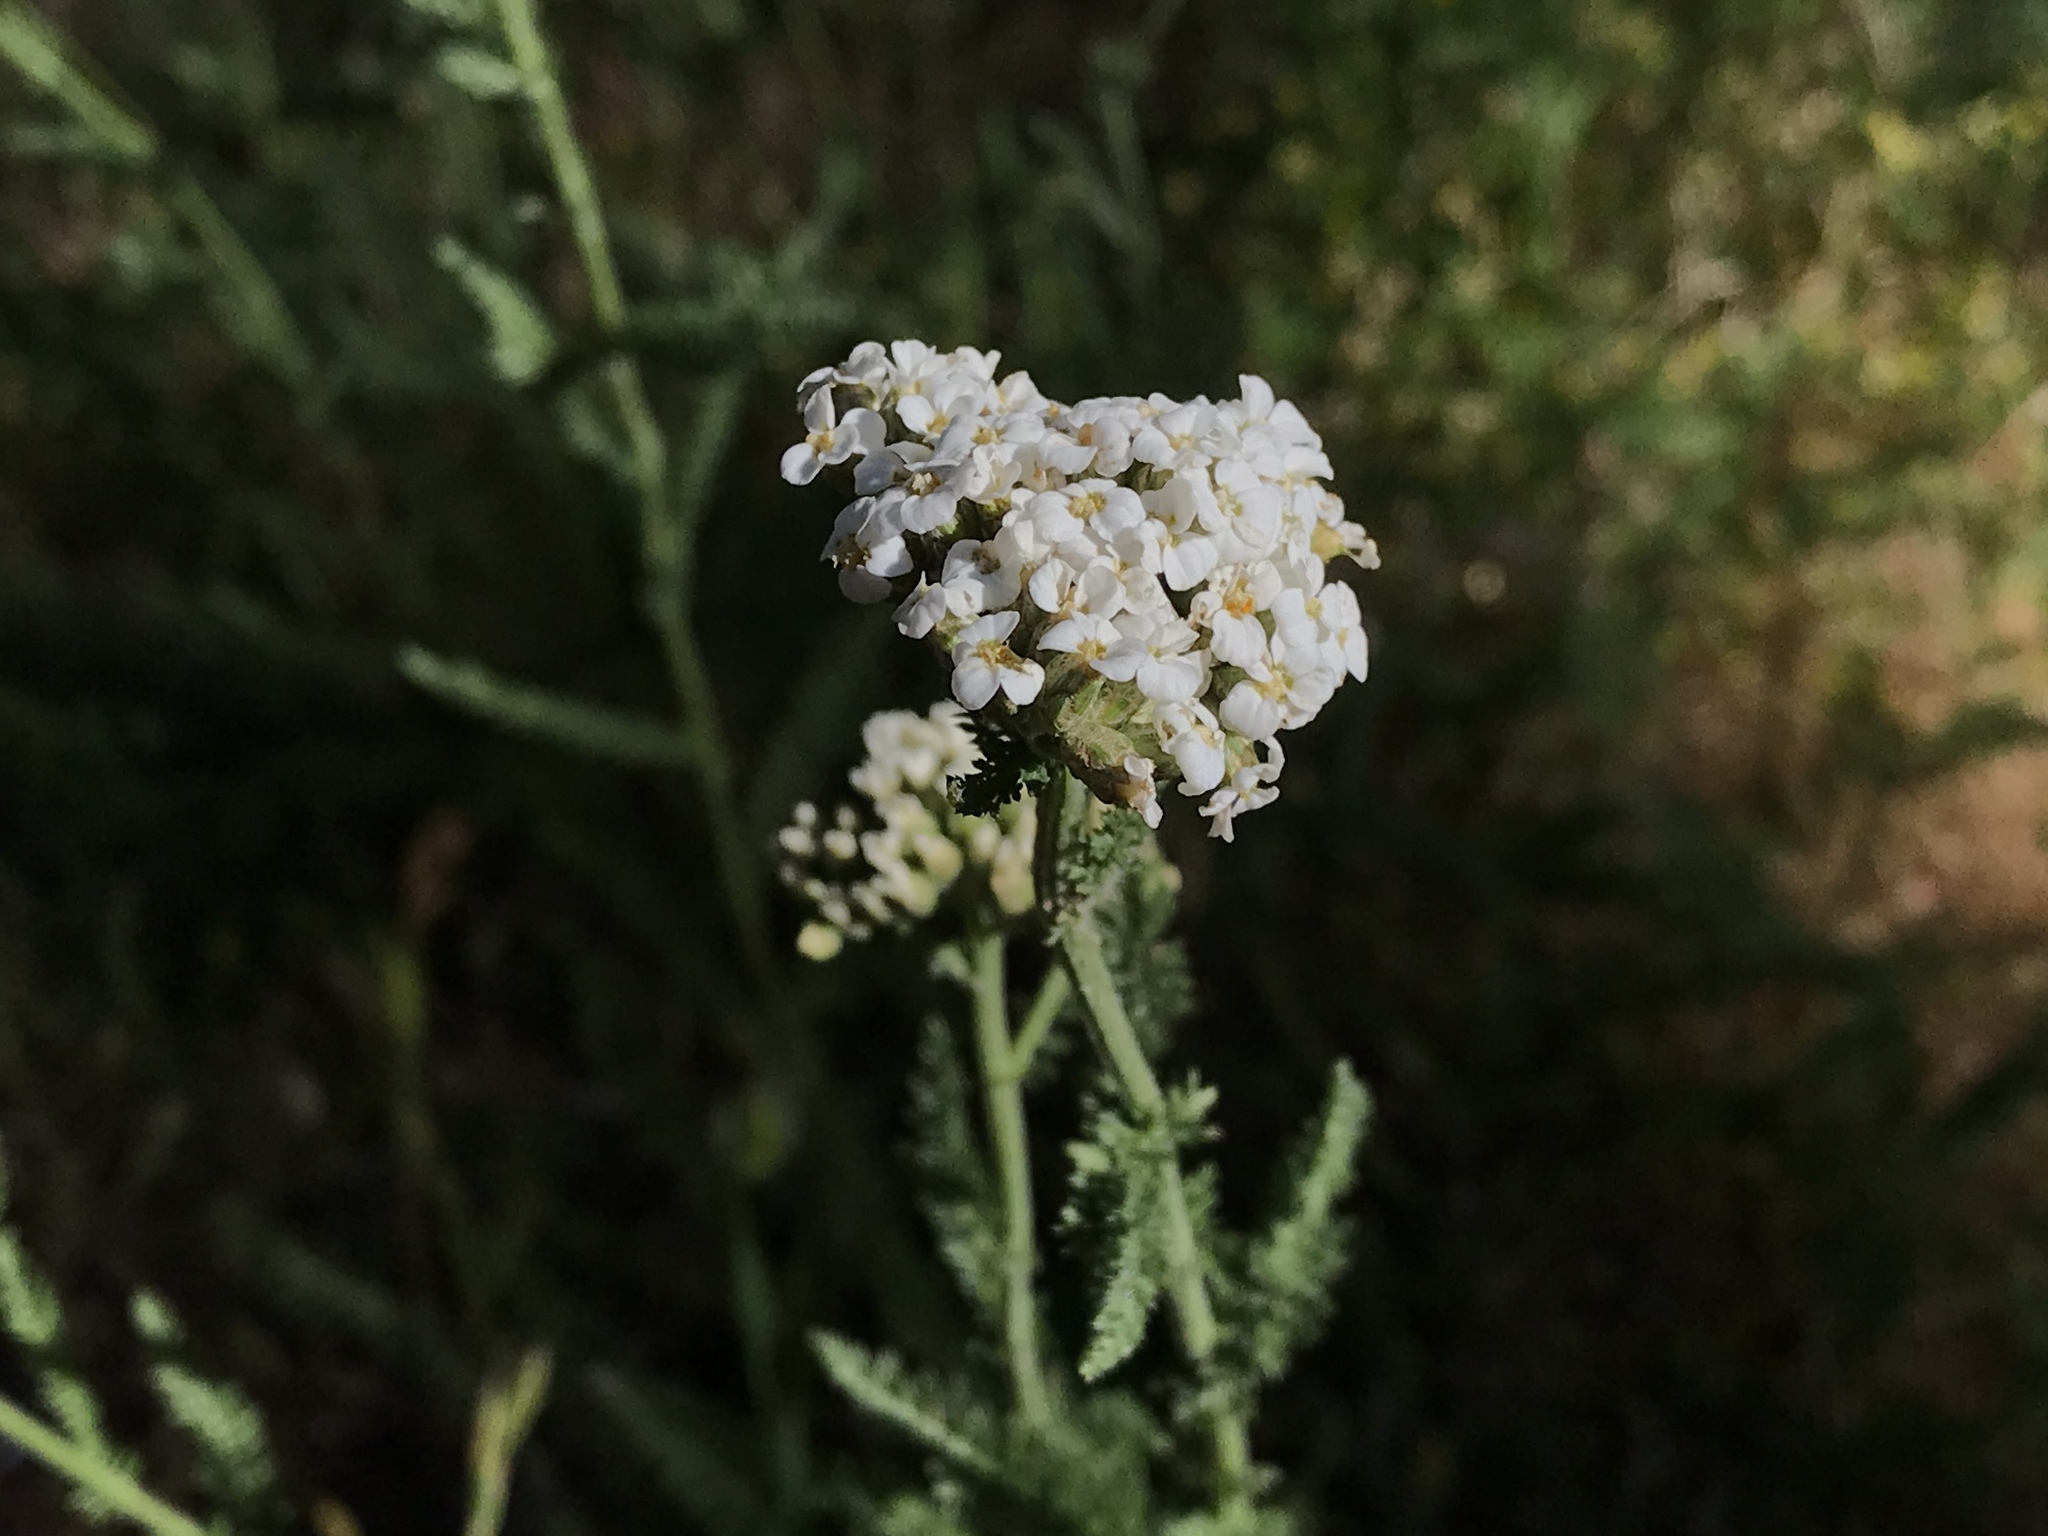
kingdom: Plantae
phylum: Tracheophyta
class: Magnoliopsida
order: Asterales
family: Asteraceae
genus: Achillea
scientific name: Achillea millefolium
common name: Yarrow
